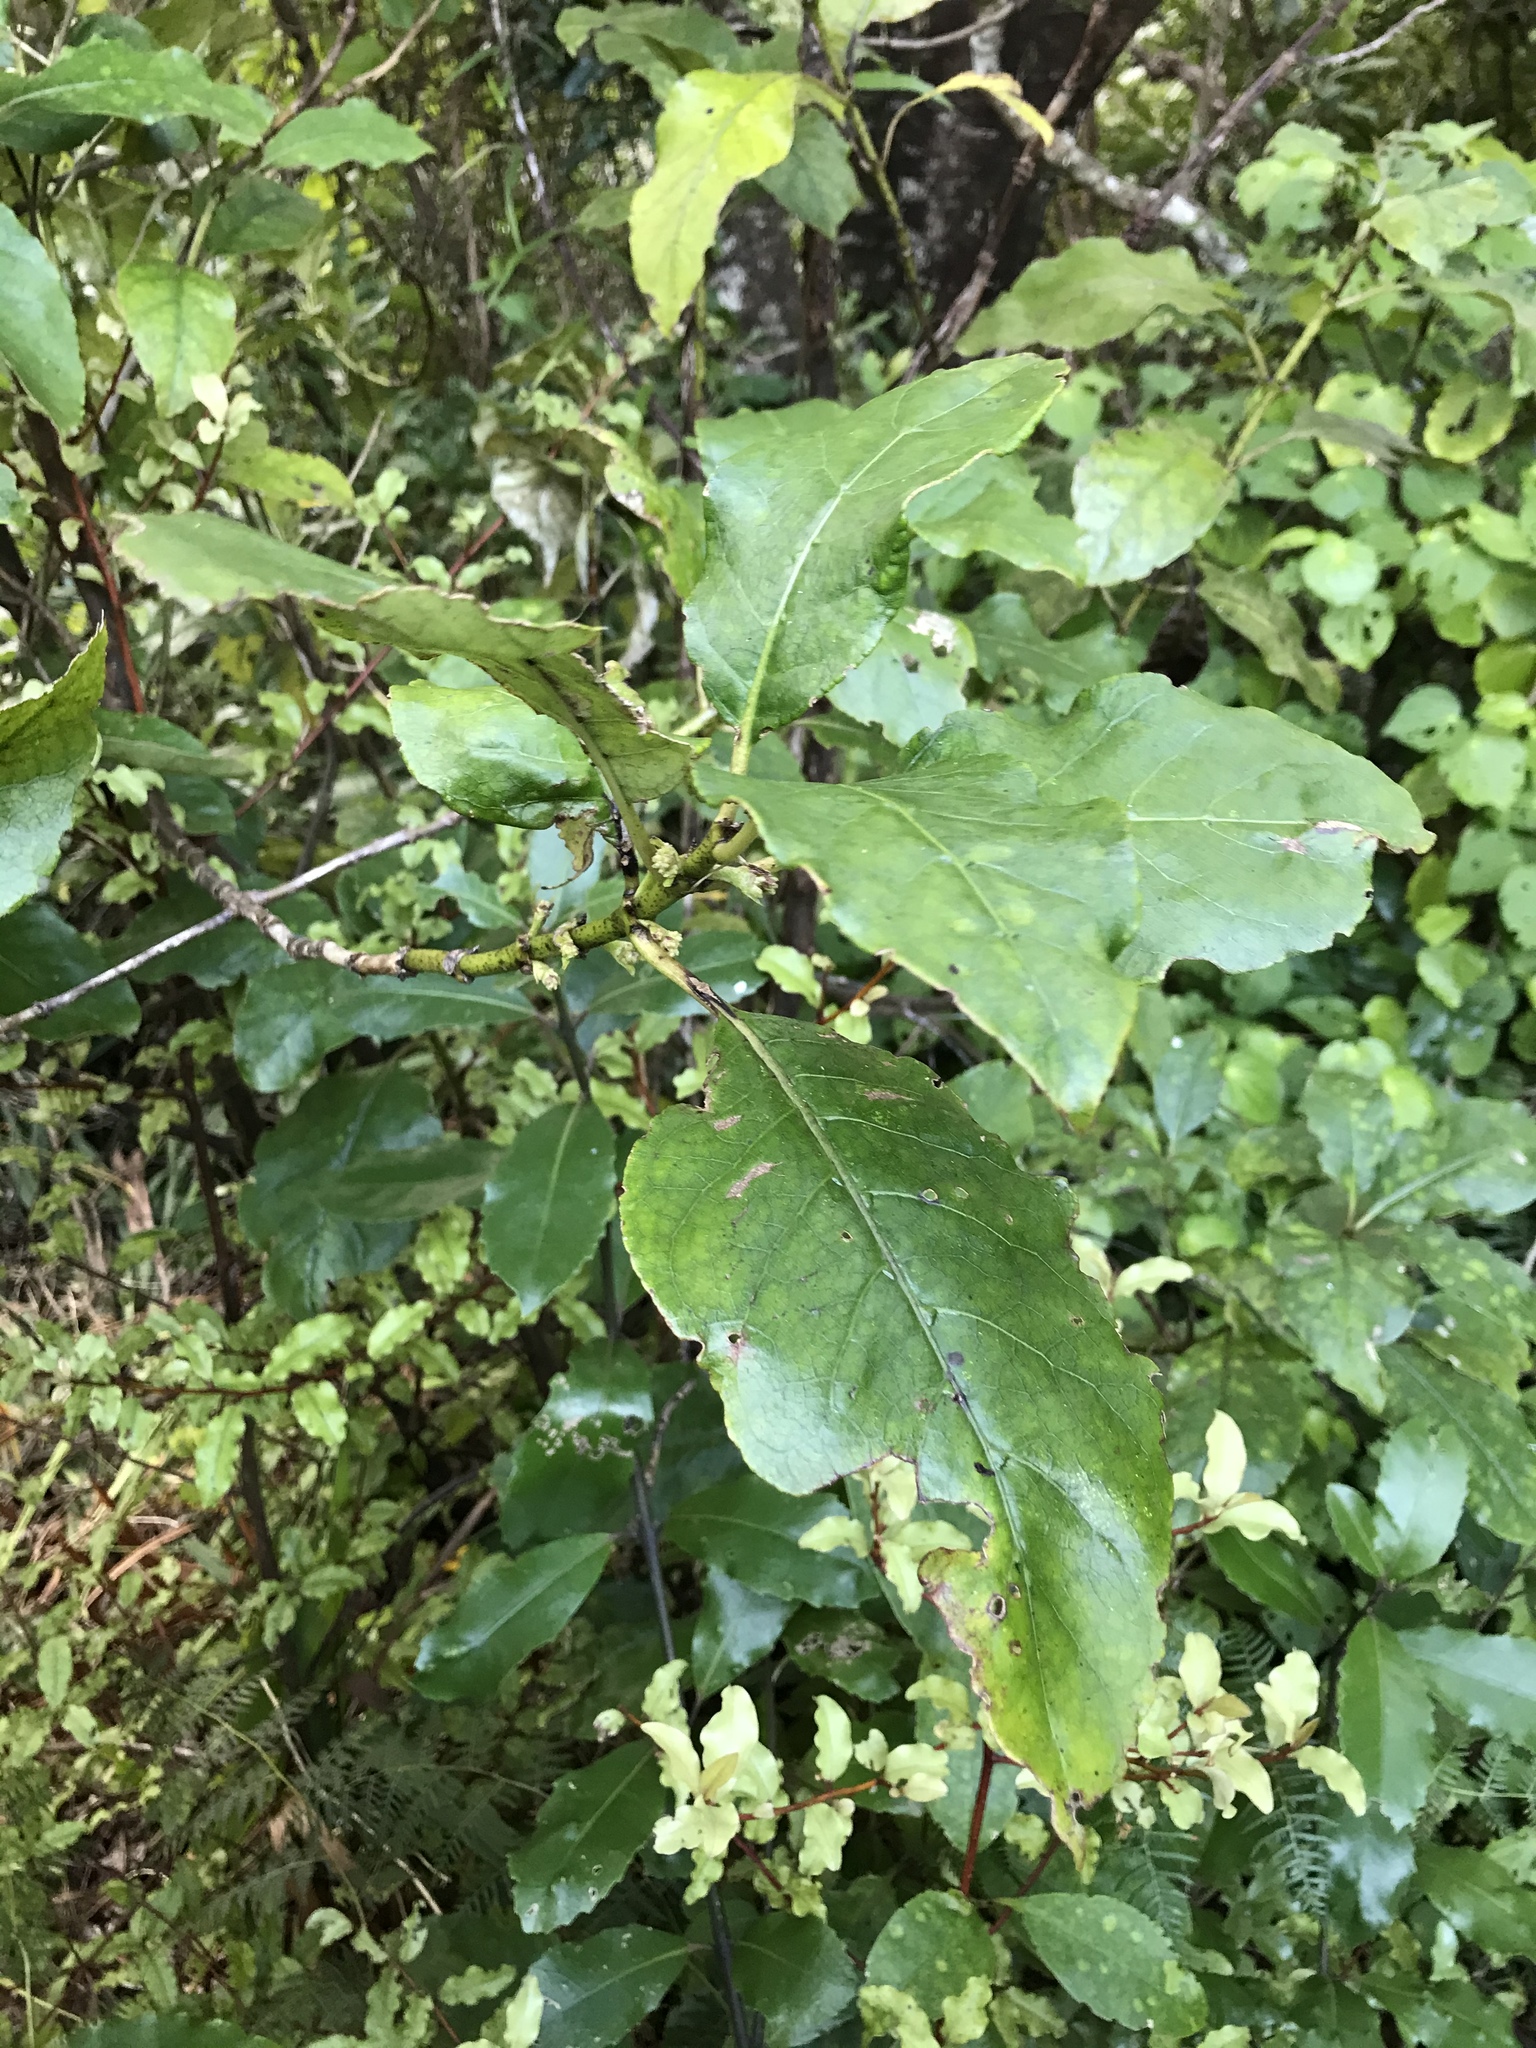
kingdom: Plantae
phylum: Tracheophyta
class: Magnoliopsida
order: Gentianales
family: Rubiaceae
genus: Coprosma
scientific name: Coprosma autumnalis
